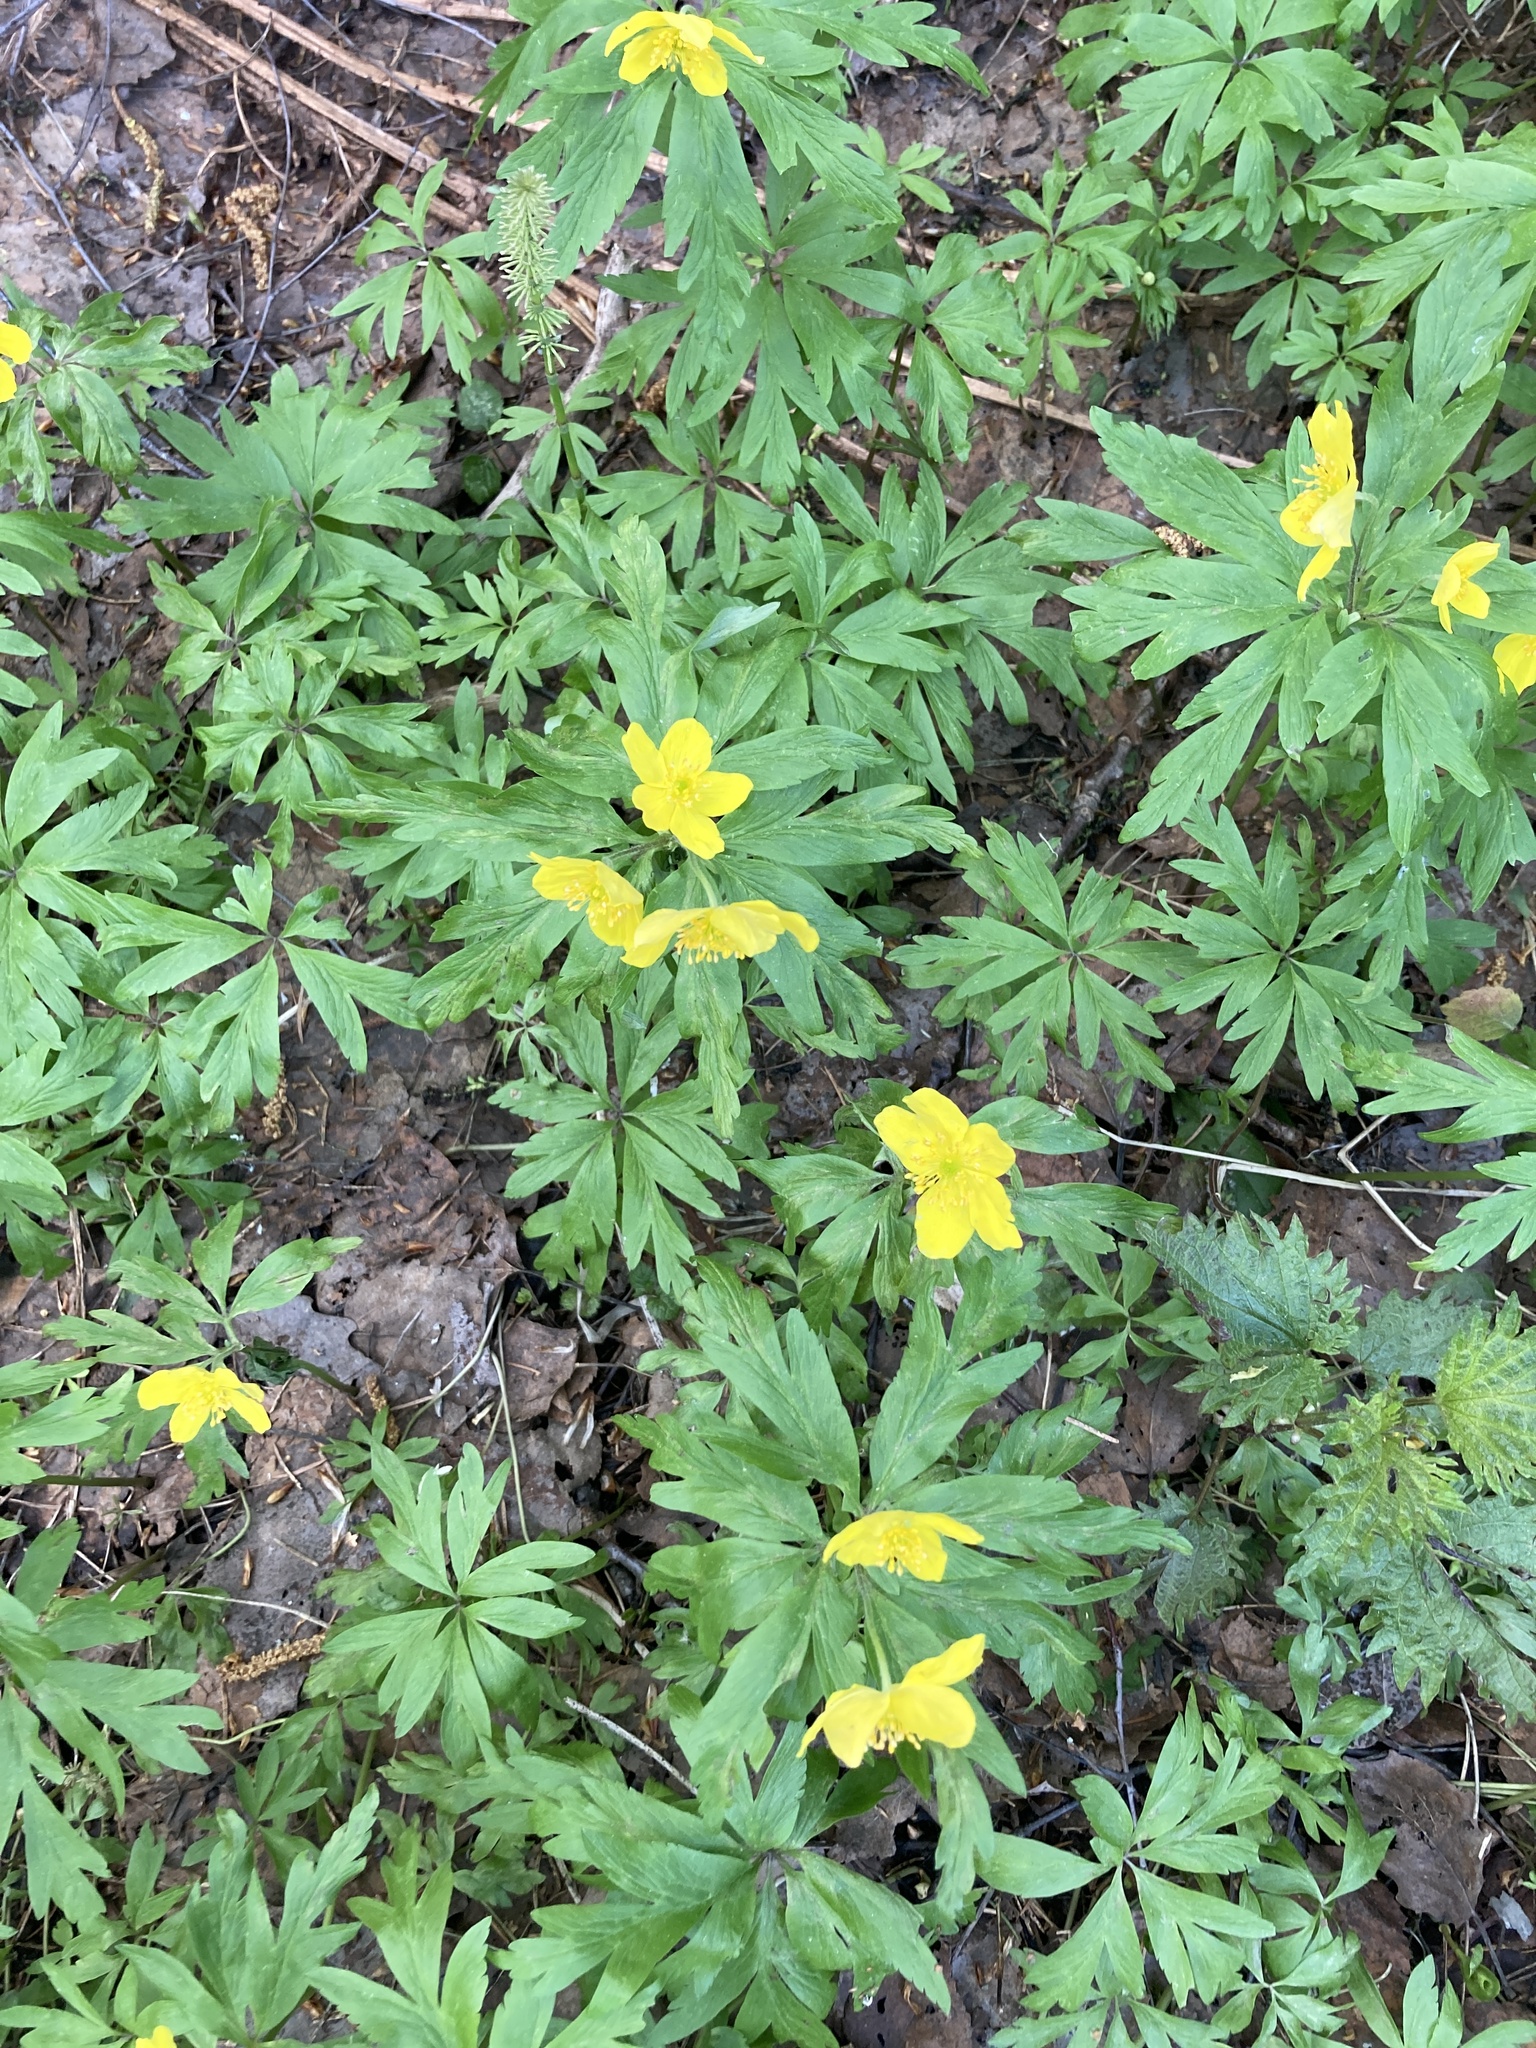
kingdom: Plantae
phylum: Tracheophyta
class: Magnoliopsida
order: Ranunculales
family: Ranunculaceae
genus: Anemone
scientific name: Anemone ranunculoides
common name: Yellow anemone
